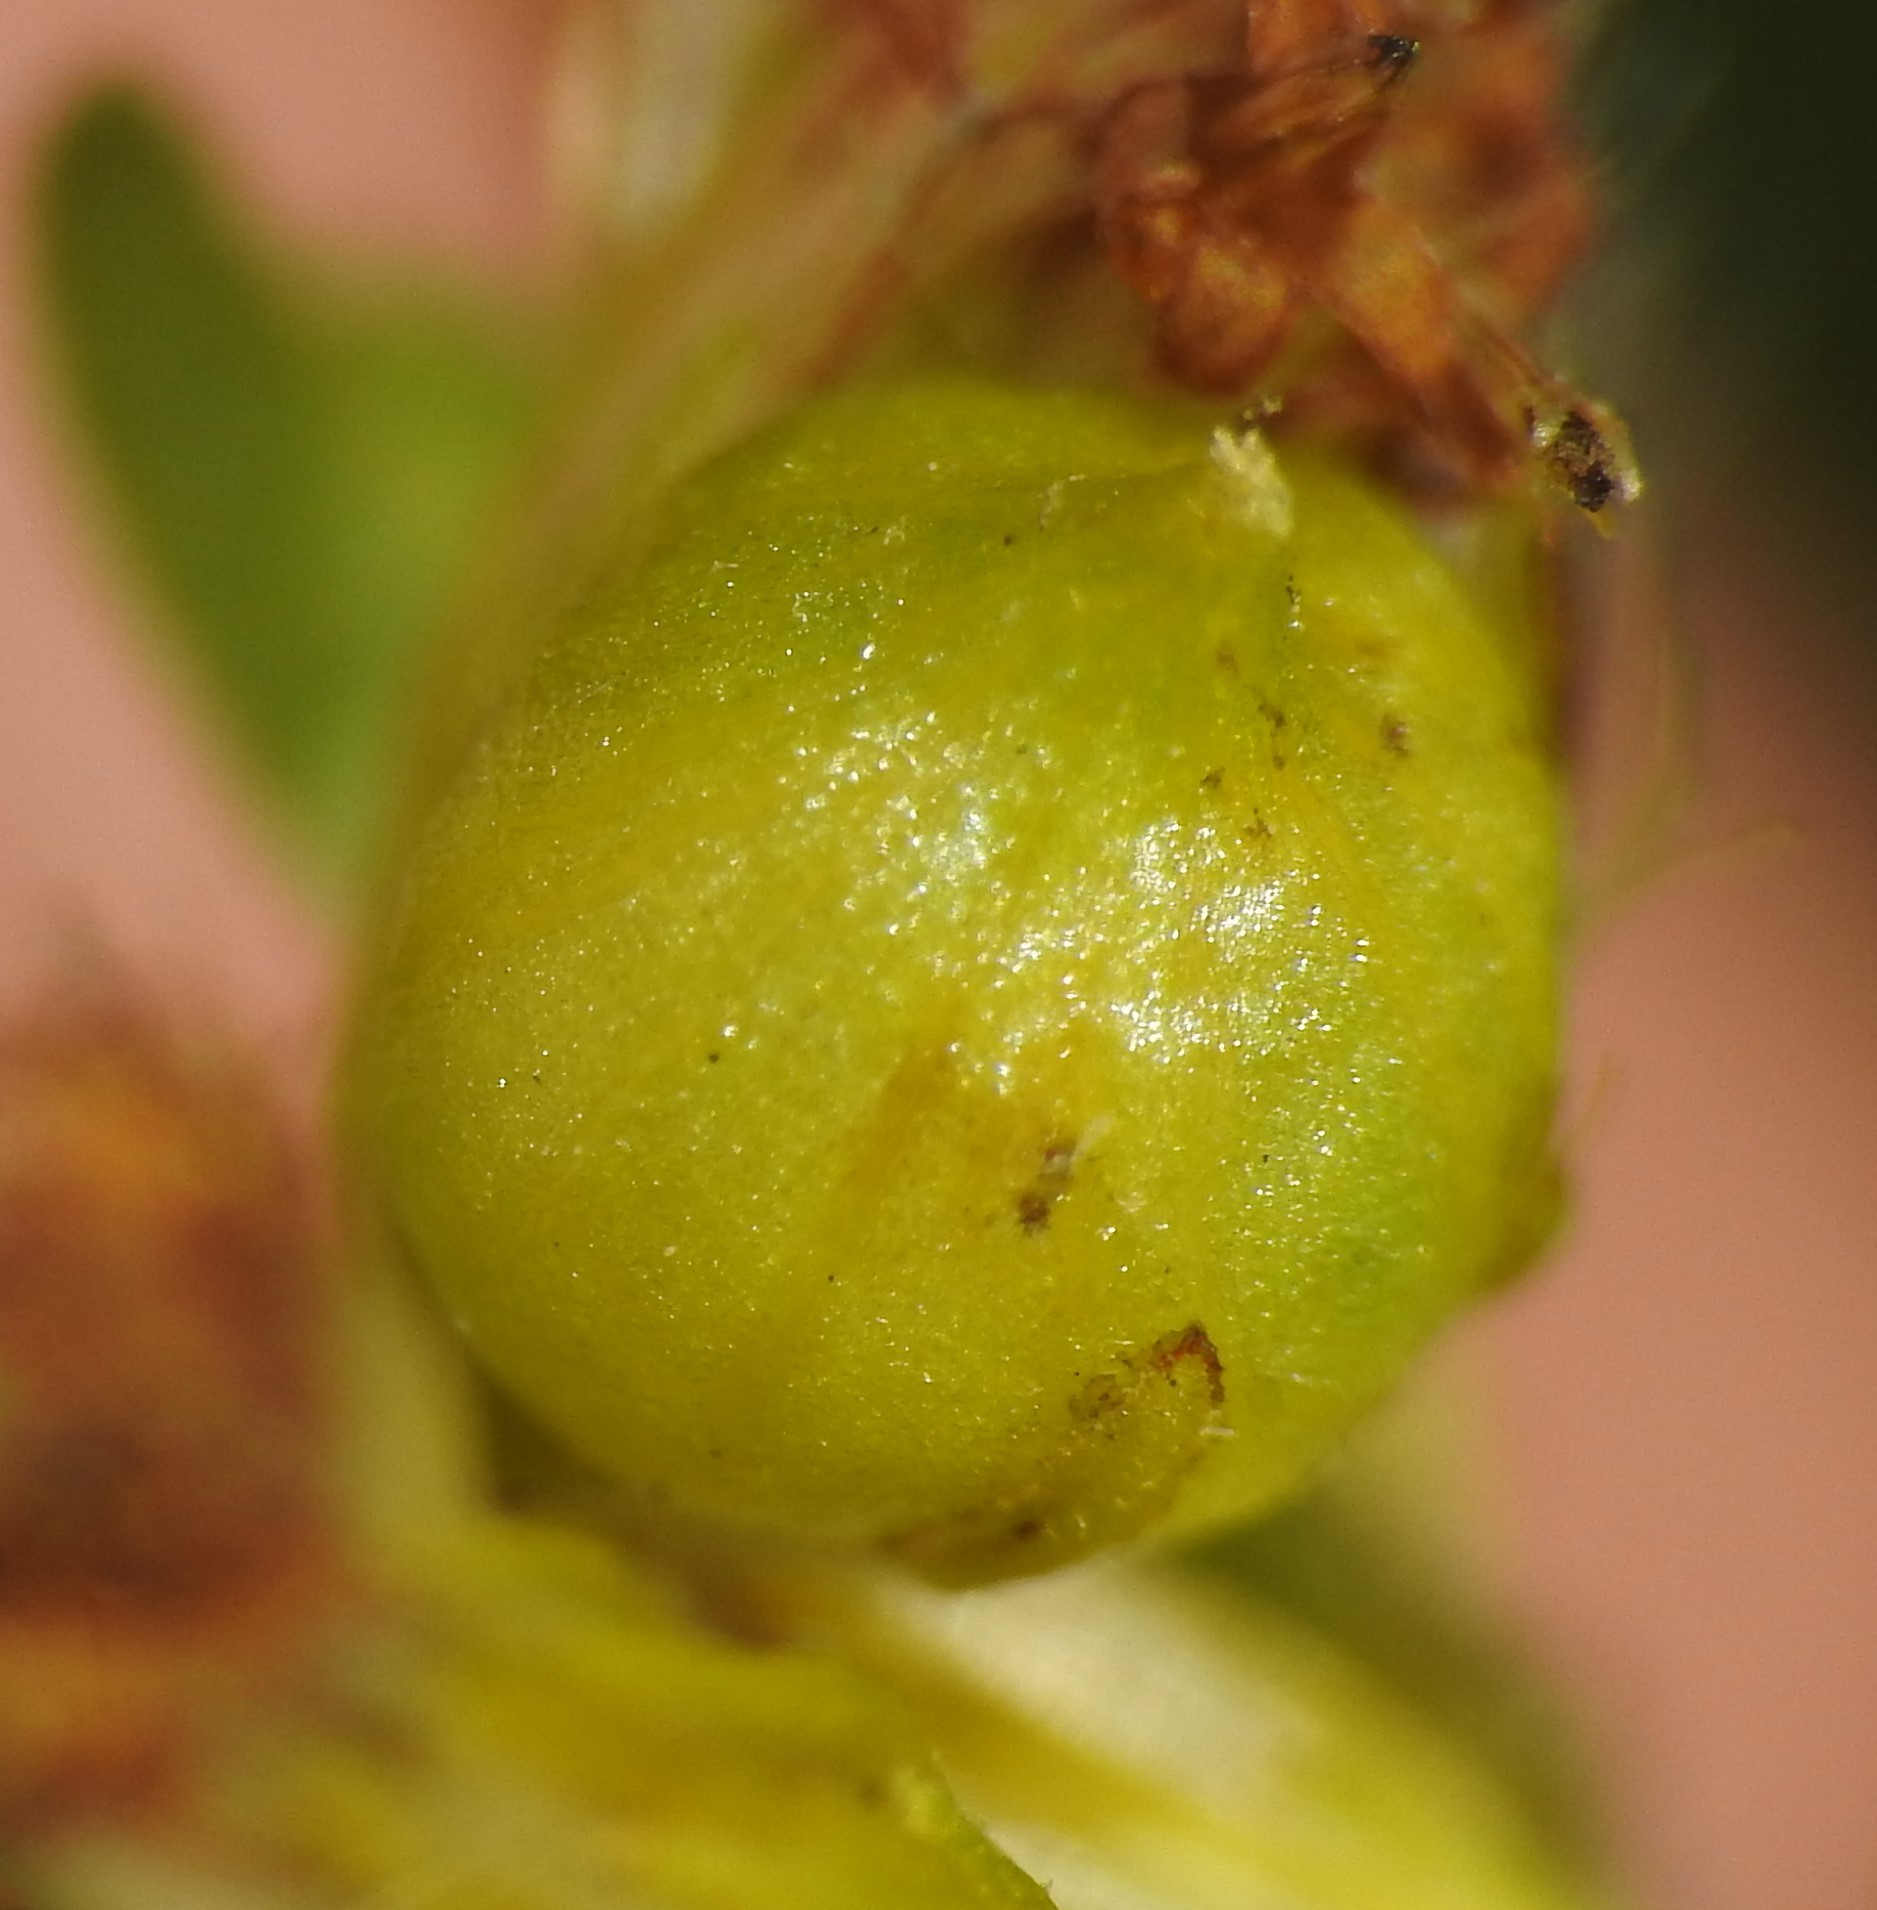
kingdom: Animalia
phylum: Arthropoda
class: Insecta
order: Diptera
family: Cecidomyiidae
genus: Schizomyia
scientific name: Schizomyia racemicola
